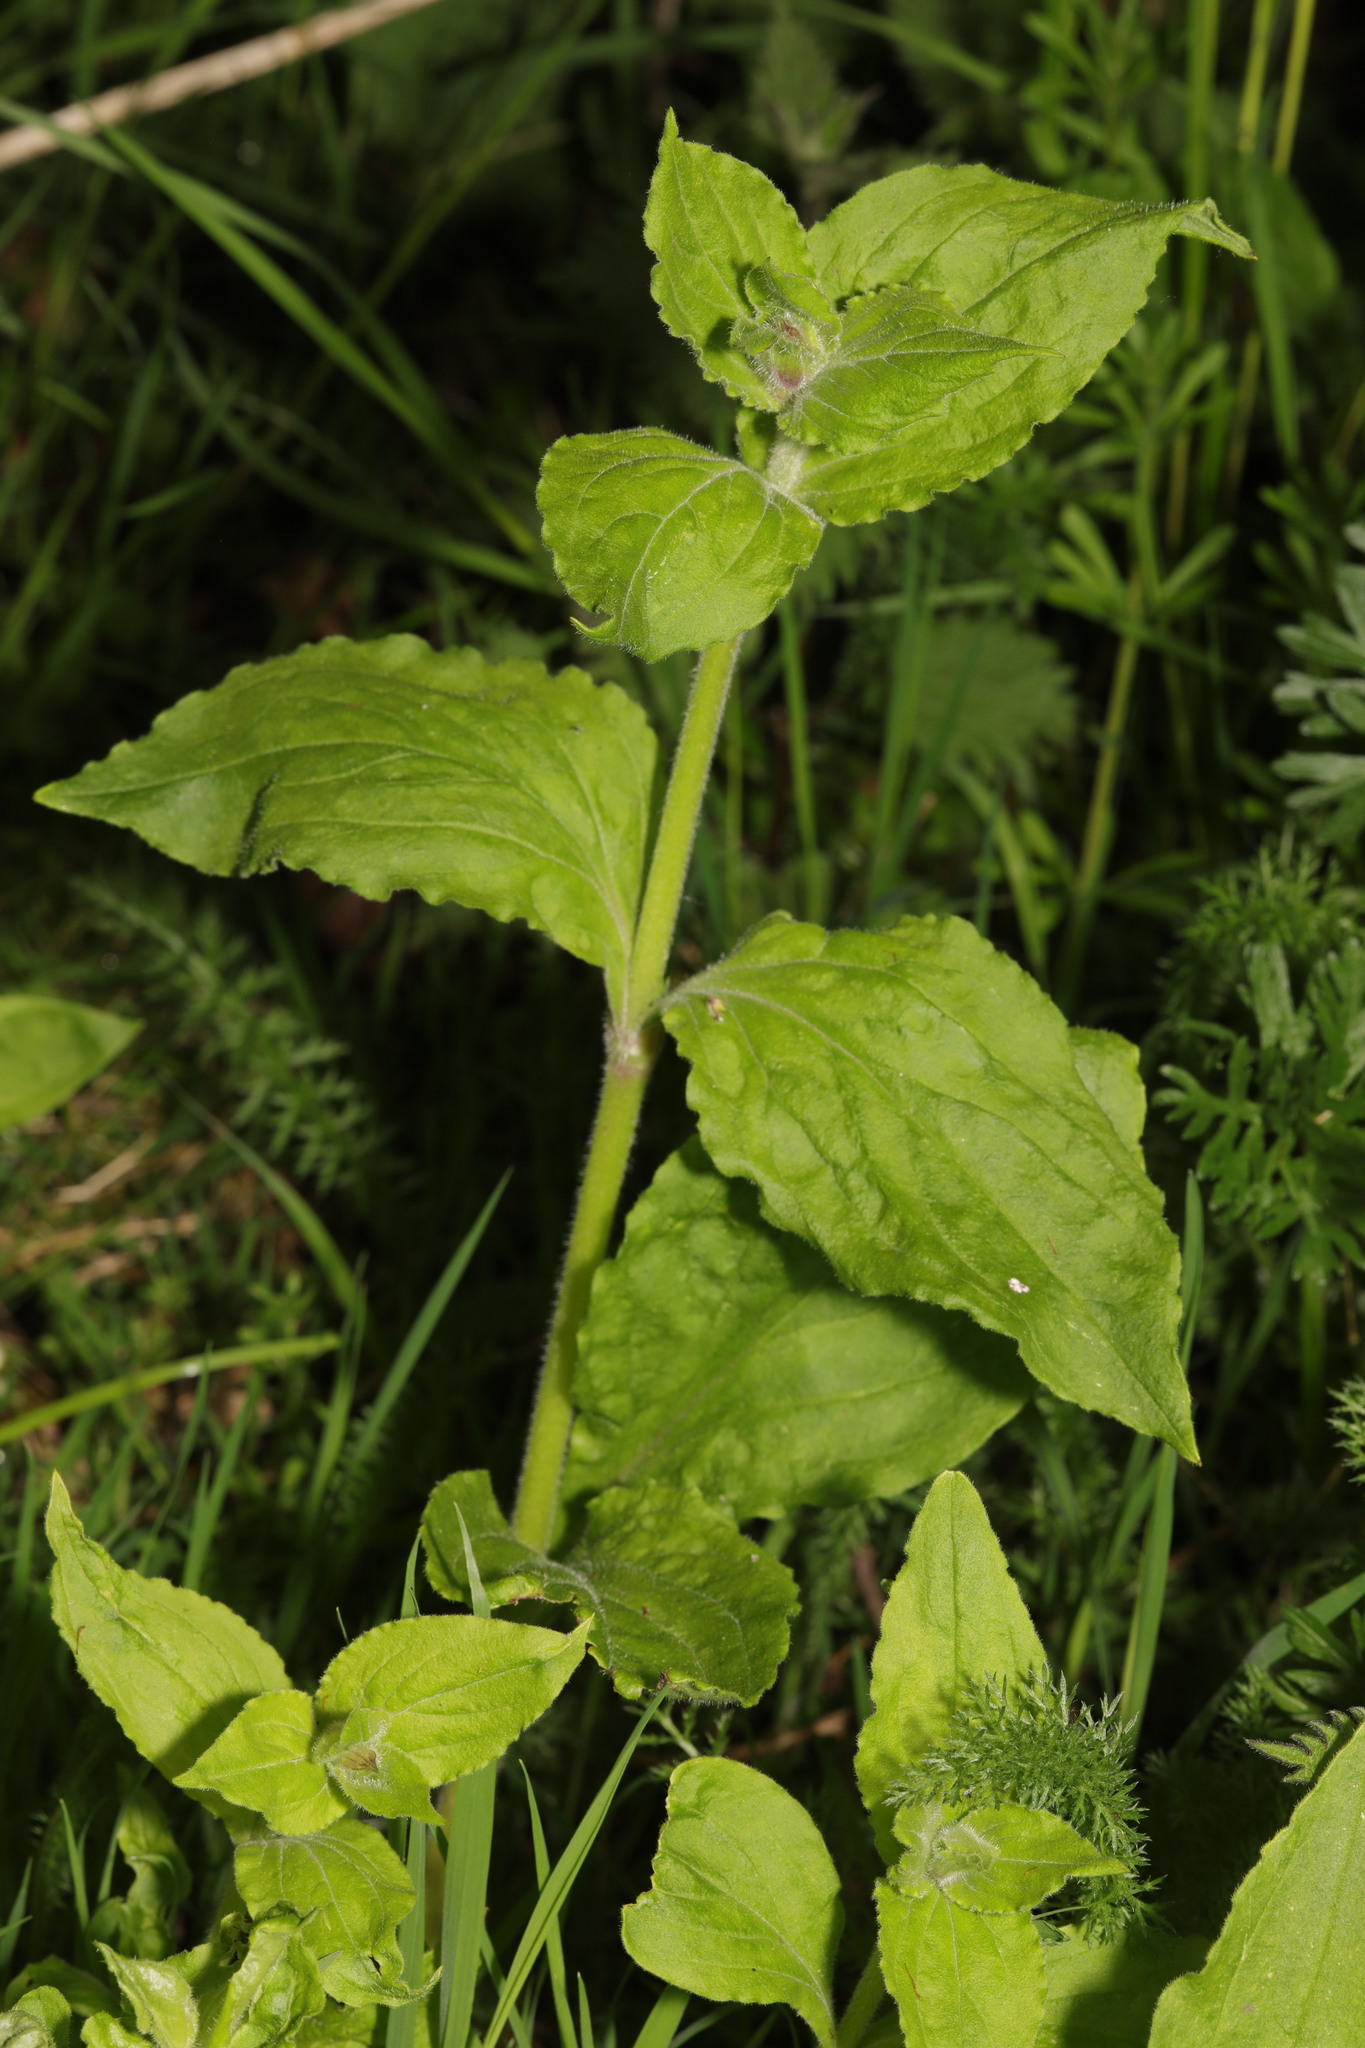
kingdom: Plantae
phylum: Tracheophyta
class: Magnoliopsida
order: Caryophyllales
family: Caryophyllaceae
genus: Silene
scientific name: Silene dioica
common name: Red campion
